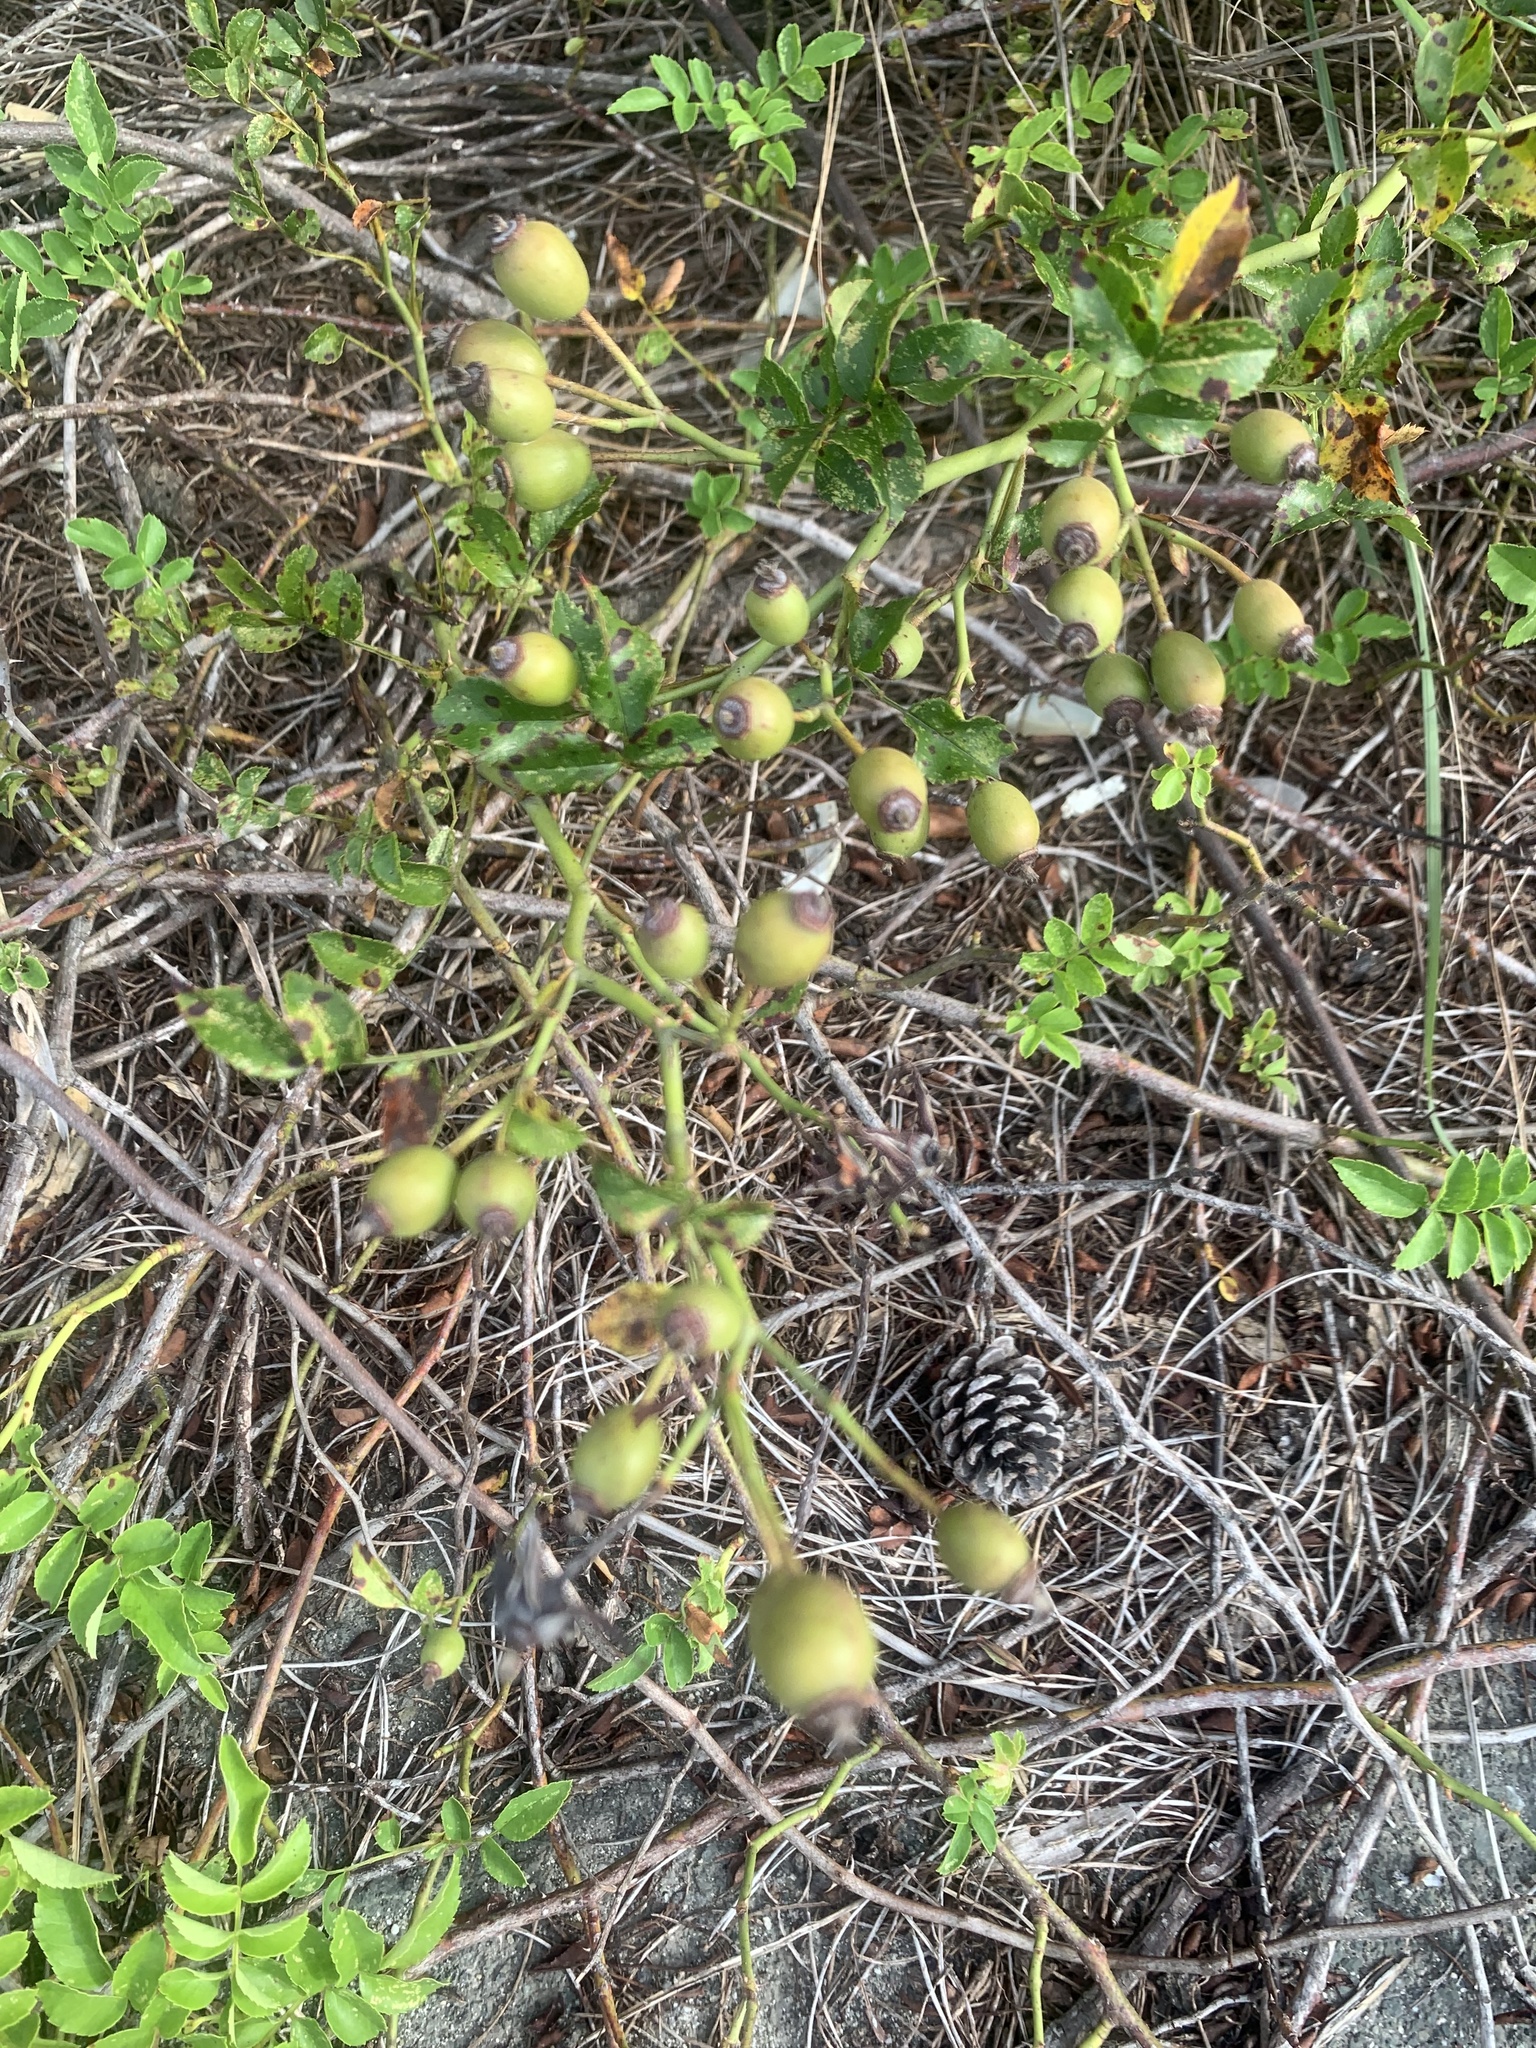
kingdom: Plantae
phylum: Tracheophyta
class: Magnoliopsida
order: Rosales
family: Rosaceae
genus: Rosa
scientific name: Rosa lucieae
